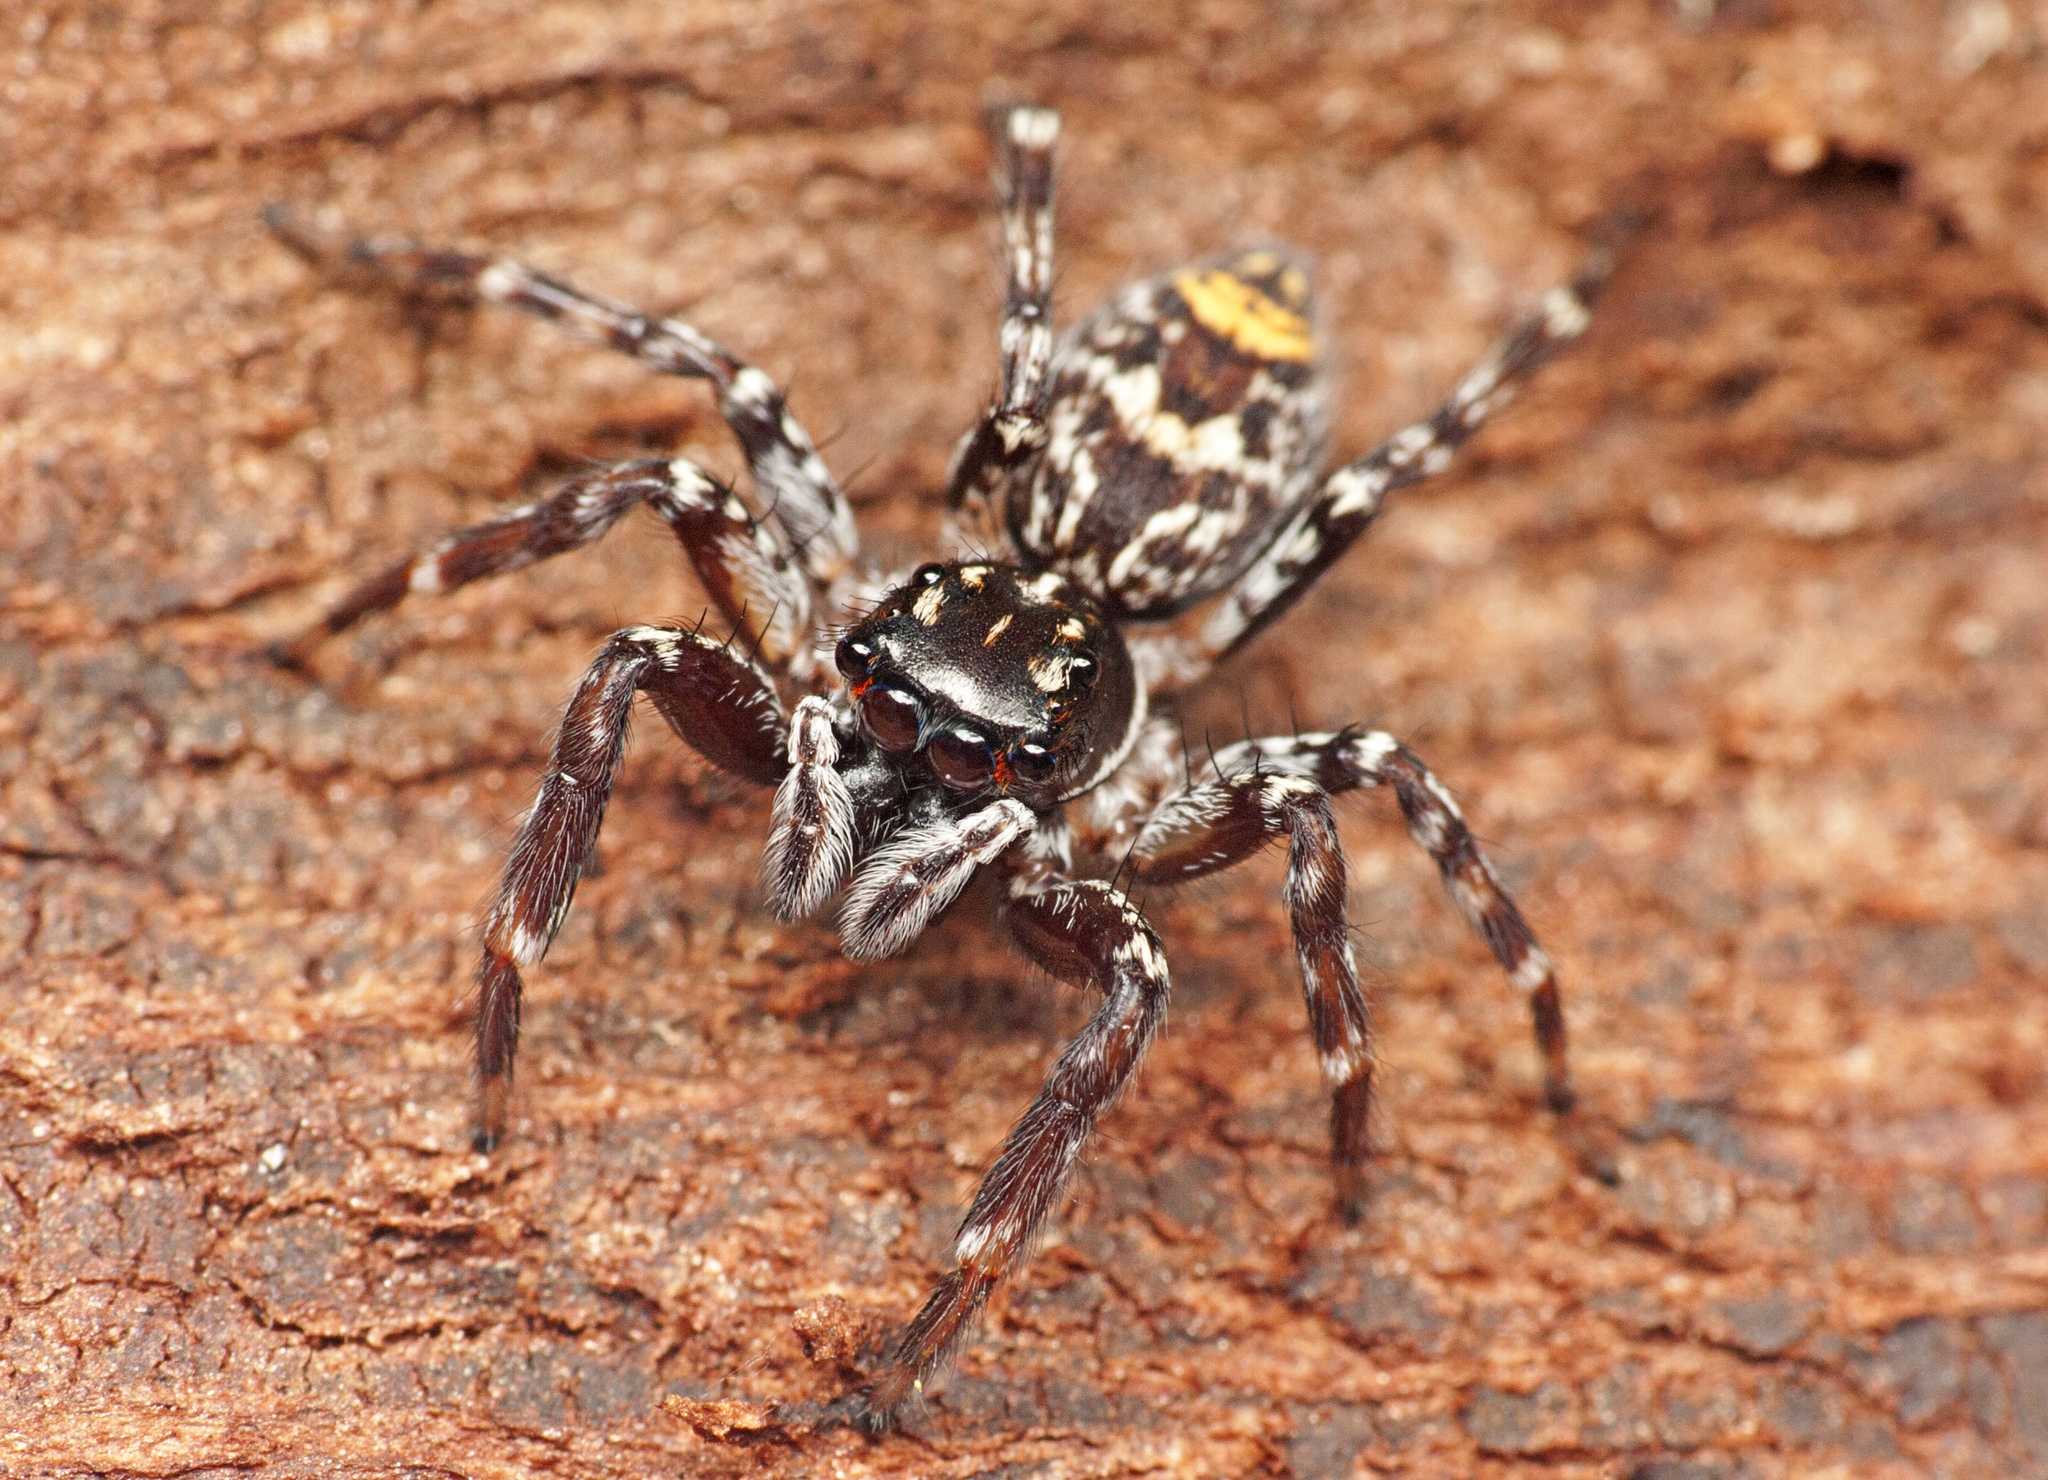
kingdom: Animalia
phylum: Arthropoda
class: Arachnida
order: Araneae
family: Salticidae
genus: Astia
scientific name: Astia
